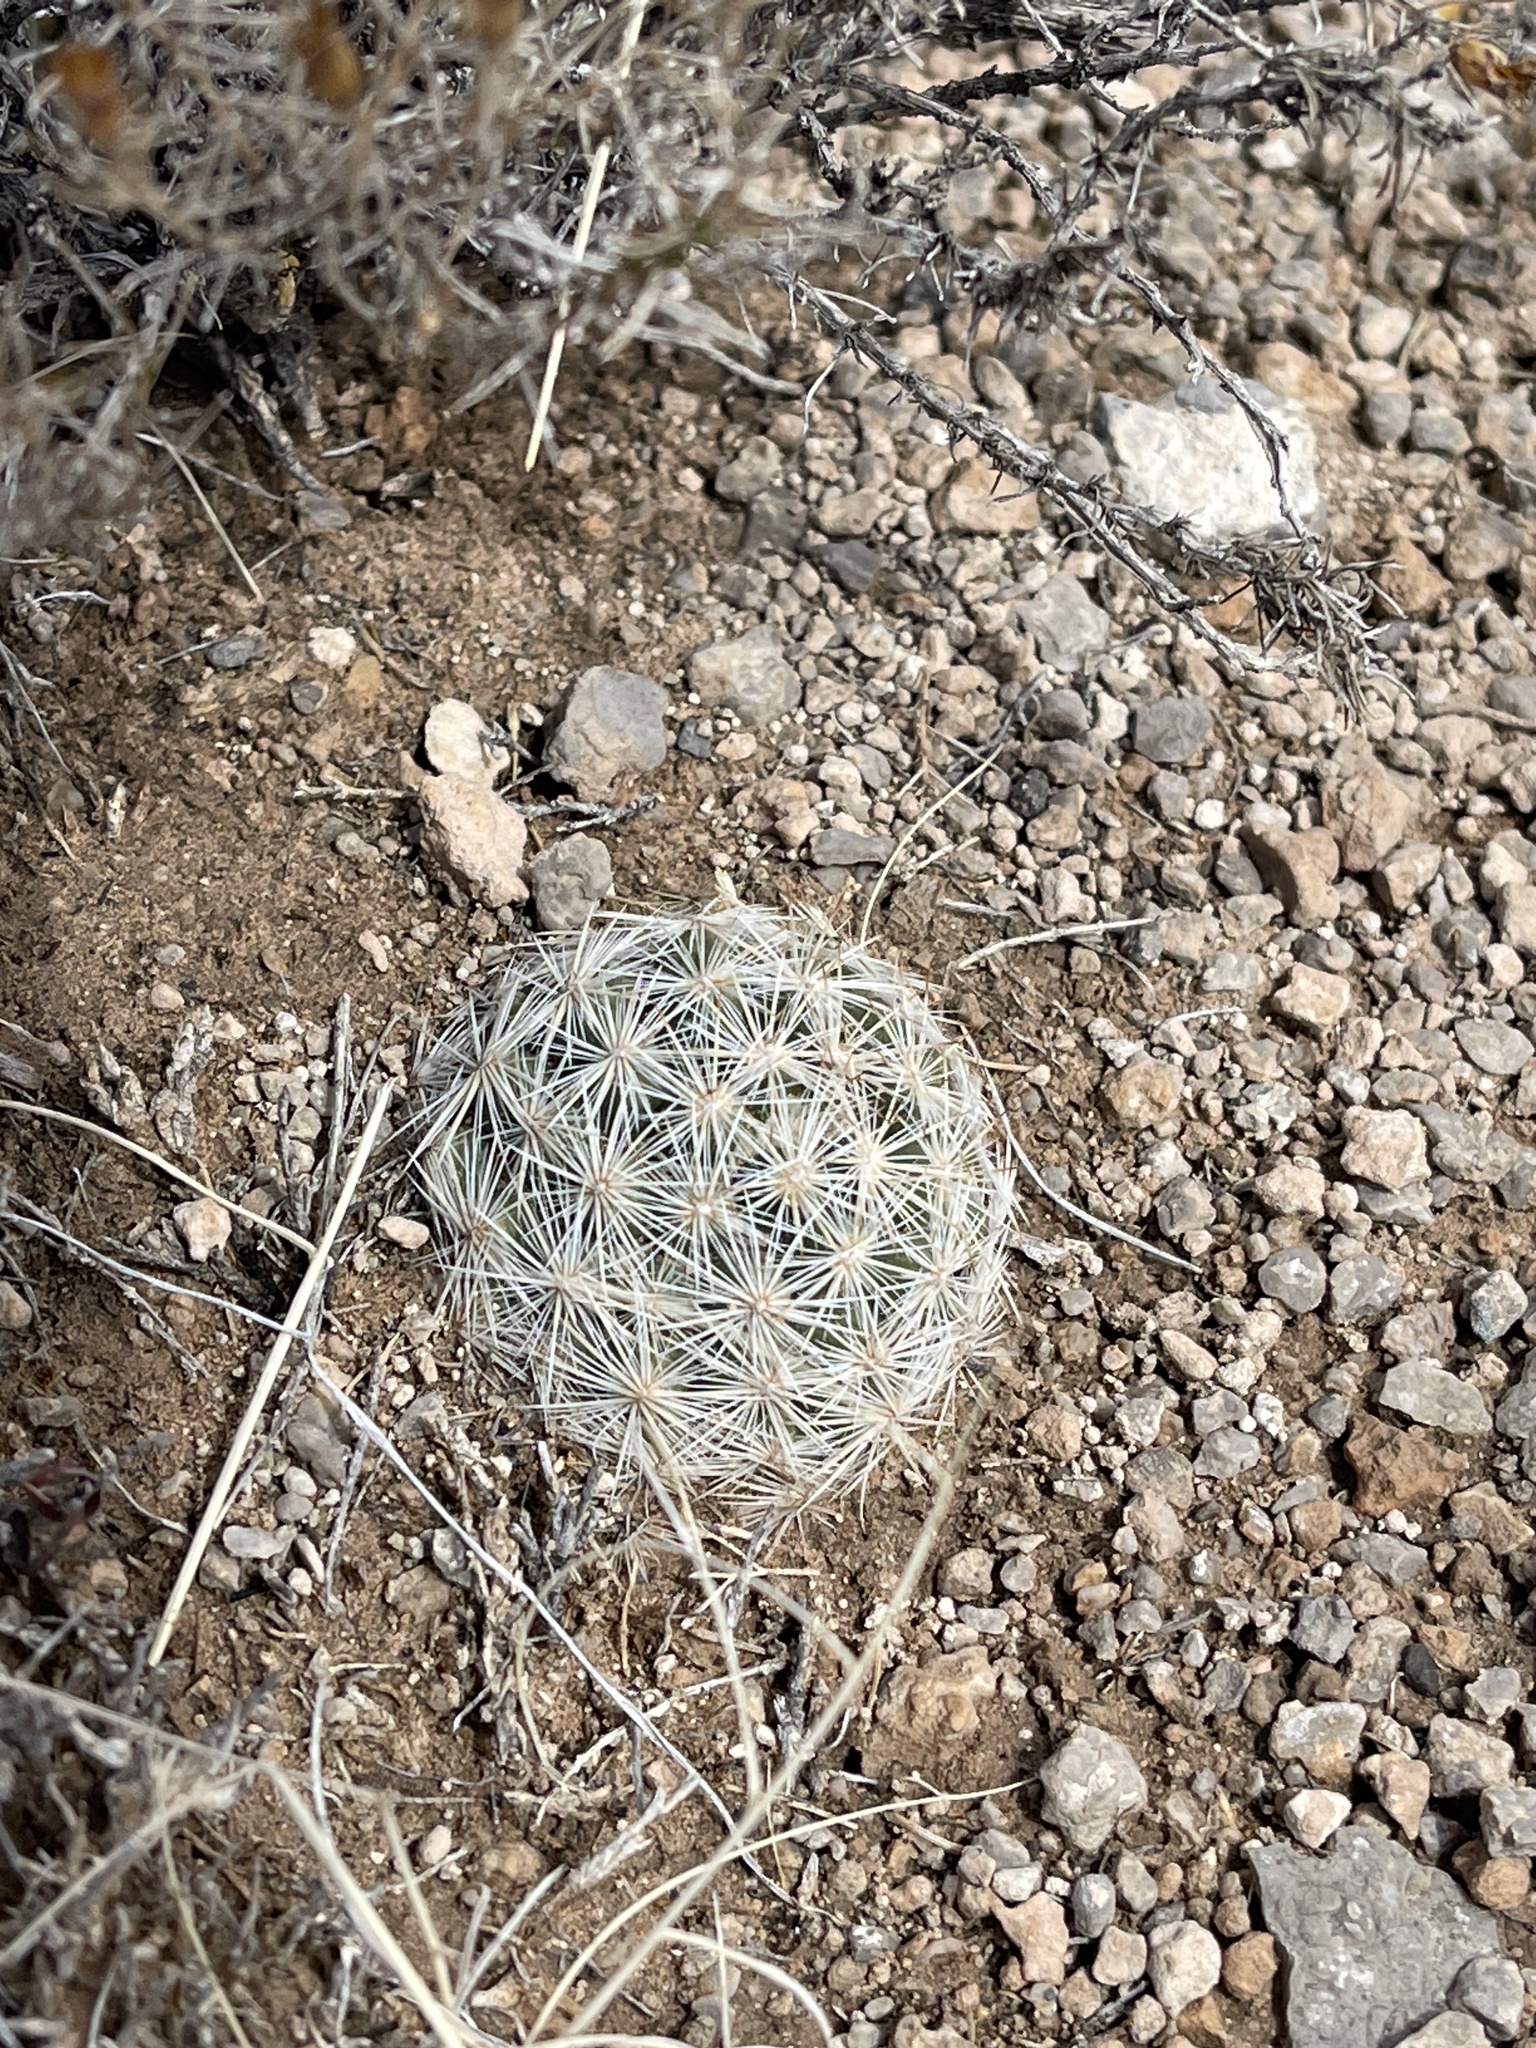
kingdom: Plantae
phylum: Tracheophyta
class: Magnoliopsida
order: Caryophyllales
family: Cactaceae
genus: Pelecyphora
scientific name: Pelecyphora vivipara
